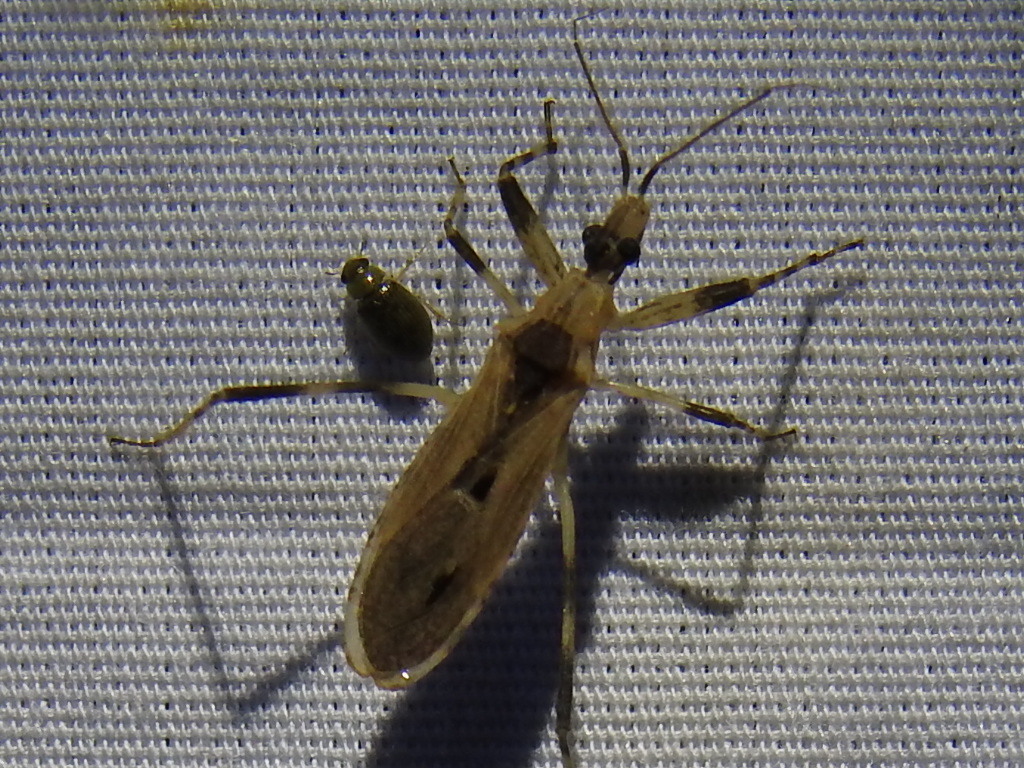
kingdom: Animalia
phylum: Arthropoda
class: Insecta
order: Hemiptera
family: Reduviidae
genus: Oncocephalus
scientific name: Oncocephalus geniculatus
